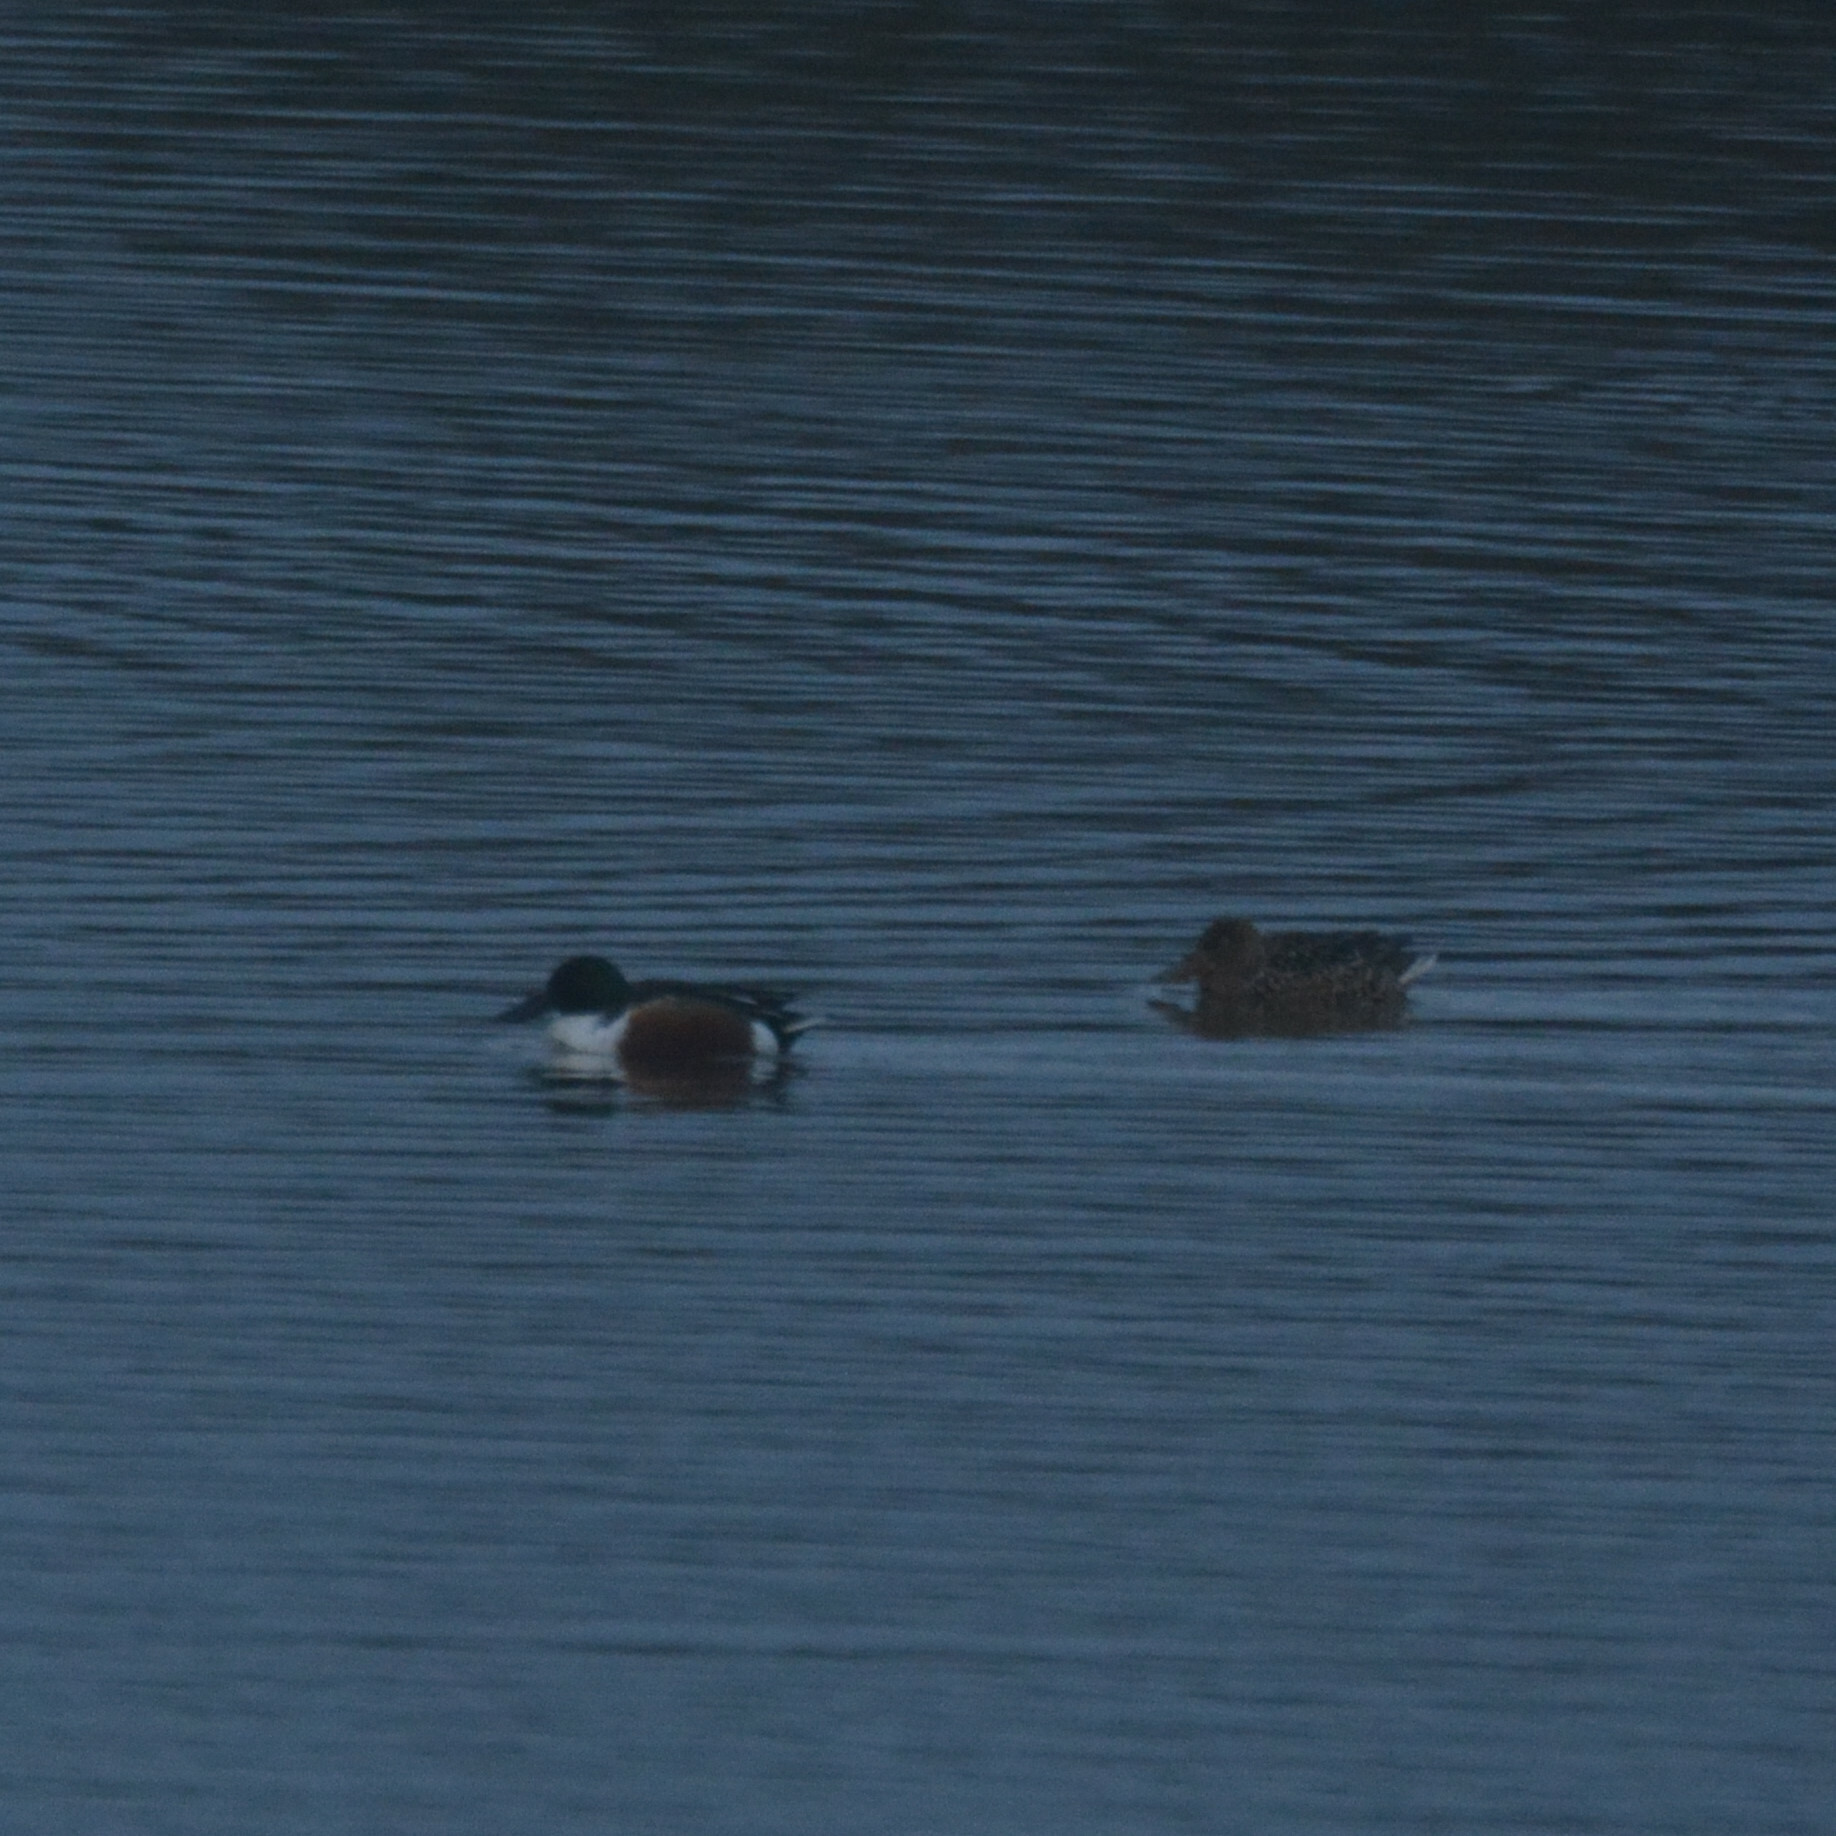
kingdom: Animalia
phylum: Chordata
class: Aves
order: Anseriformes
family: Anatidae
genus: Spatula
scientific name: Spatula clypeata
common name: Northern shoveler
